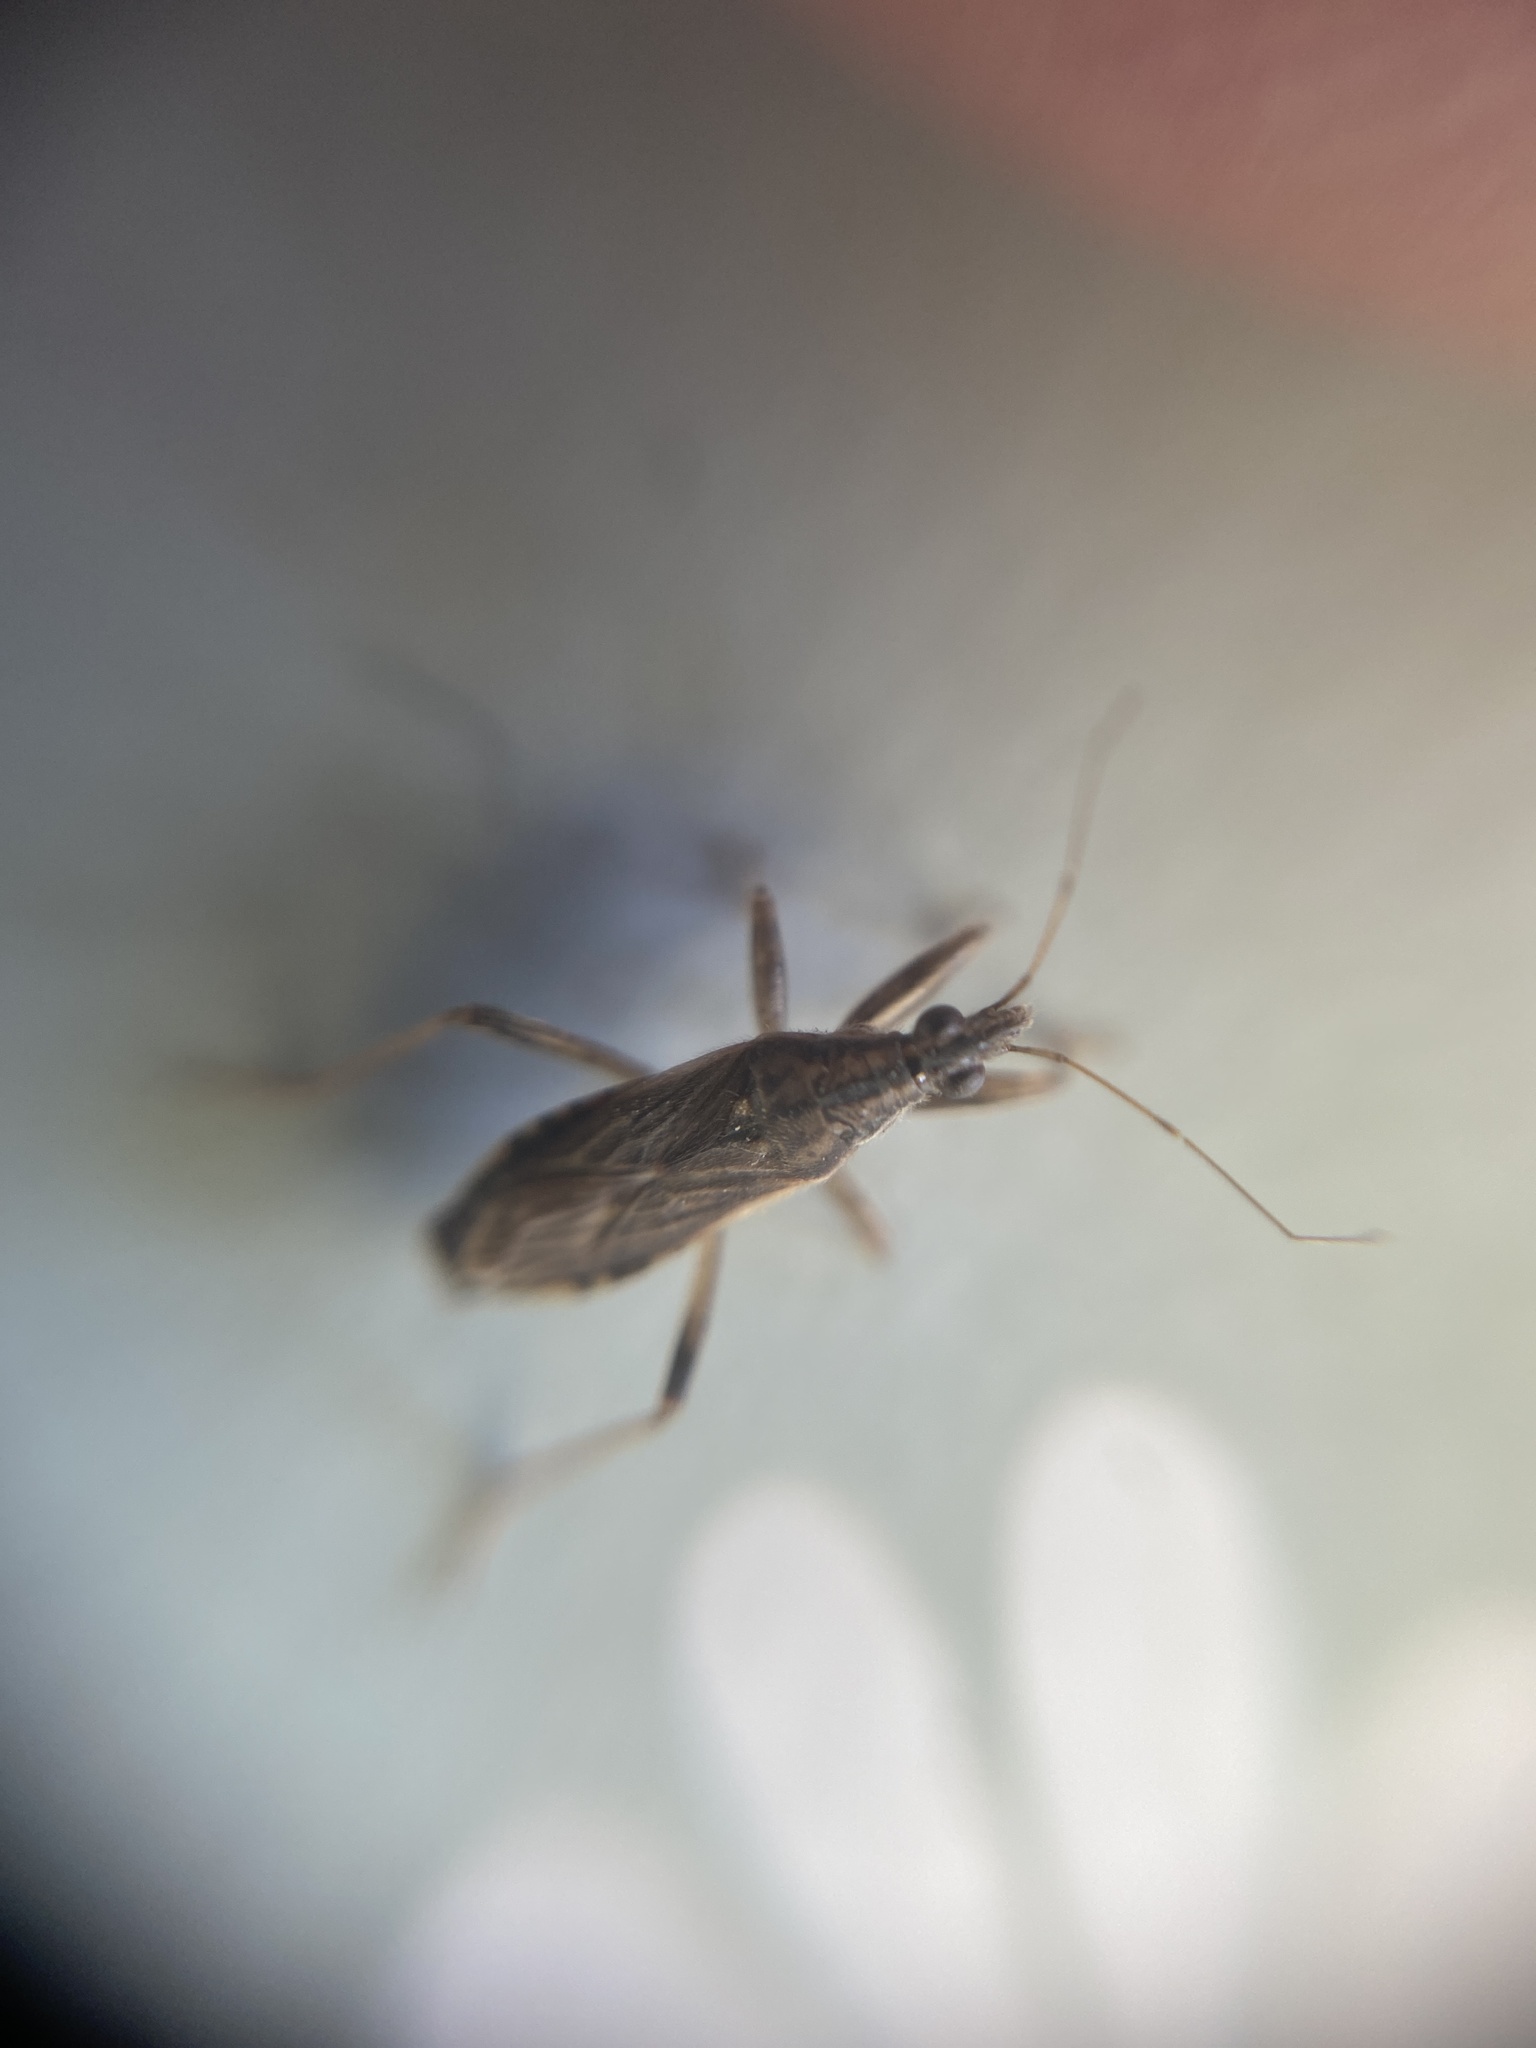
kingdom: Animalia
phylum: Arthropoda
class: Insecta
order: Hemiptera
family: Nabidae
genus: Himacerus
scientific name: Himacerus major
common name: Damsel bug
